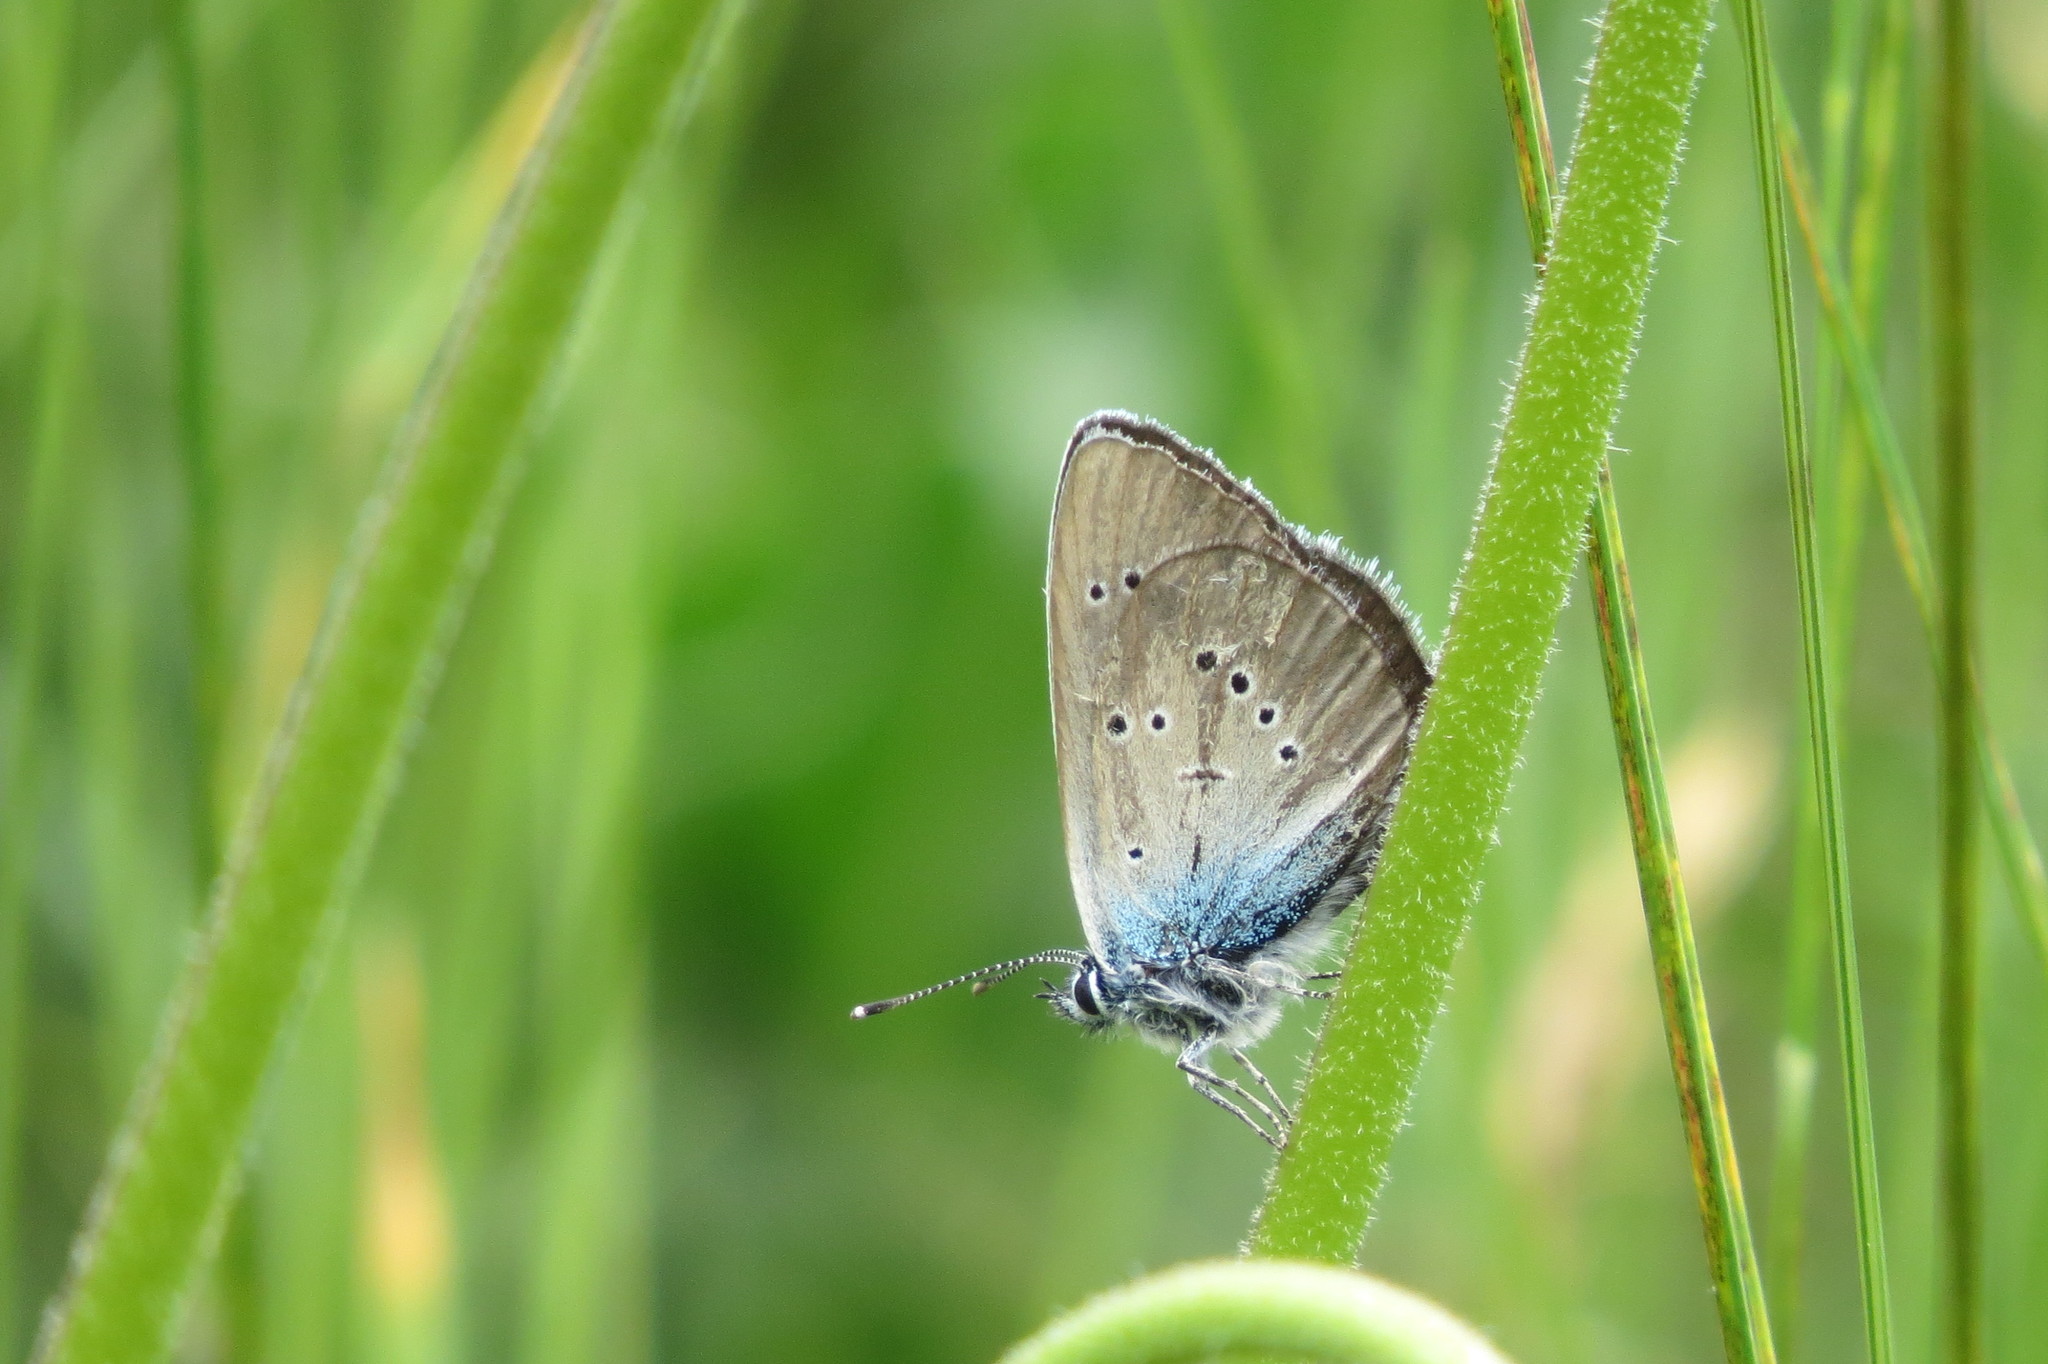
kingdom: Animalia
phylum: Arthropoda
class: Insecta
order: Lepidoptera
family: Lycaenidae
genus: Cyaniris
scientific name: Cyaniris semiargus
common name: Mazarine blue
